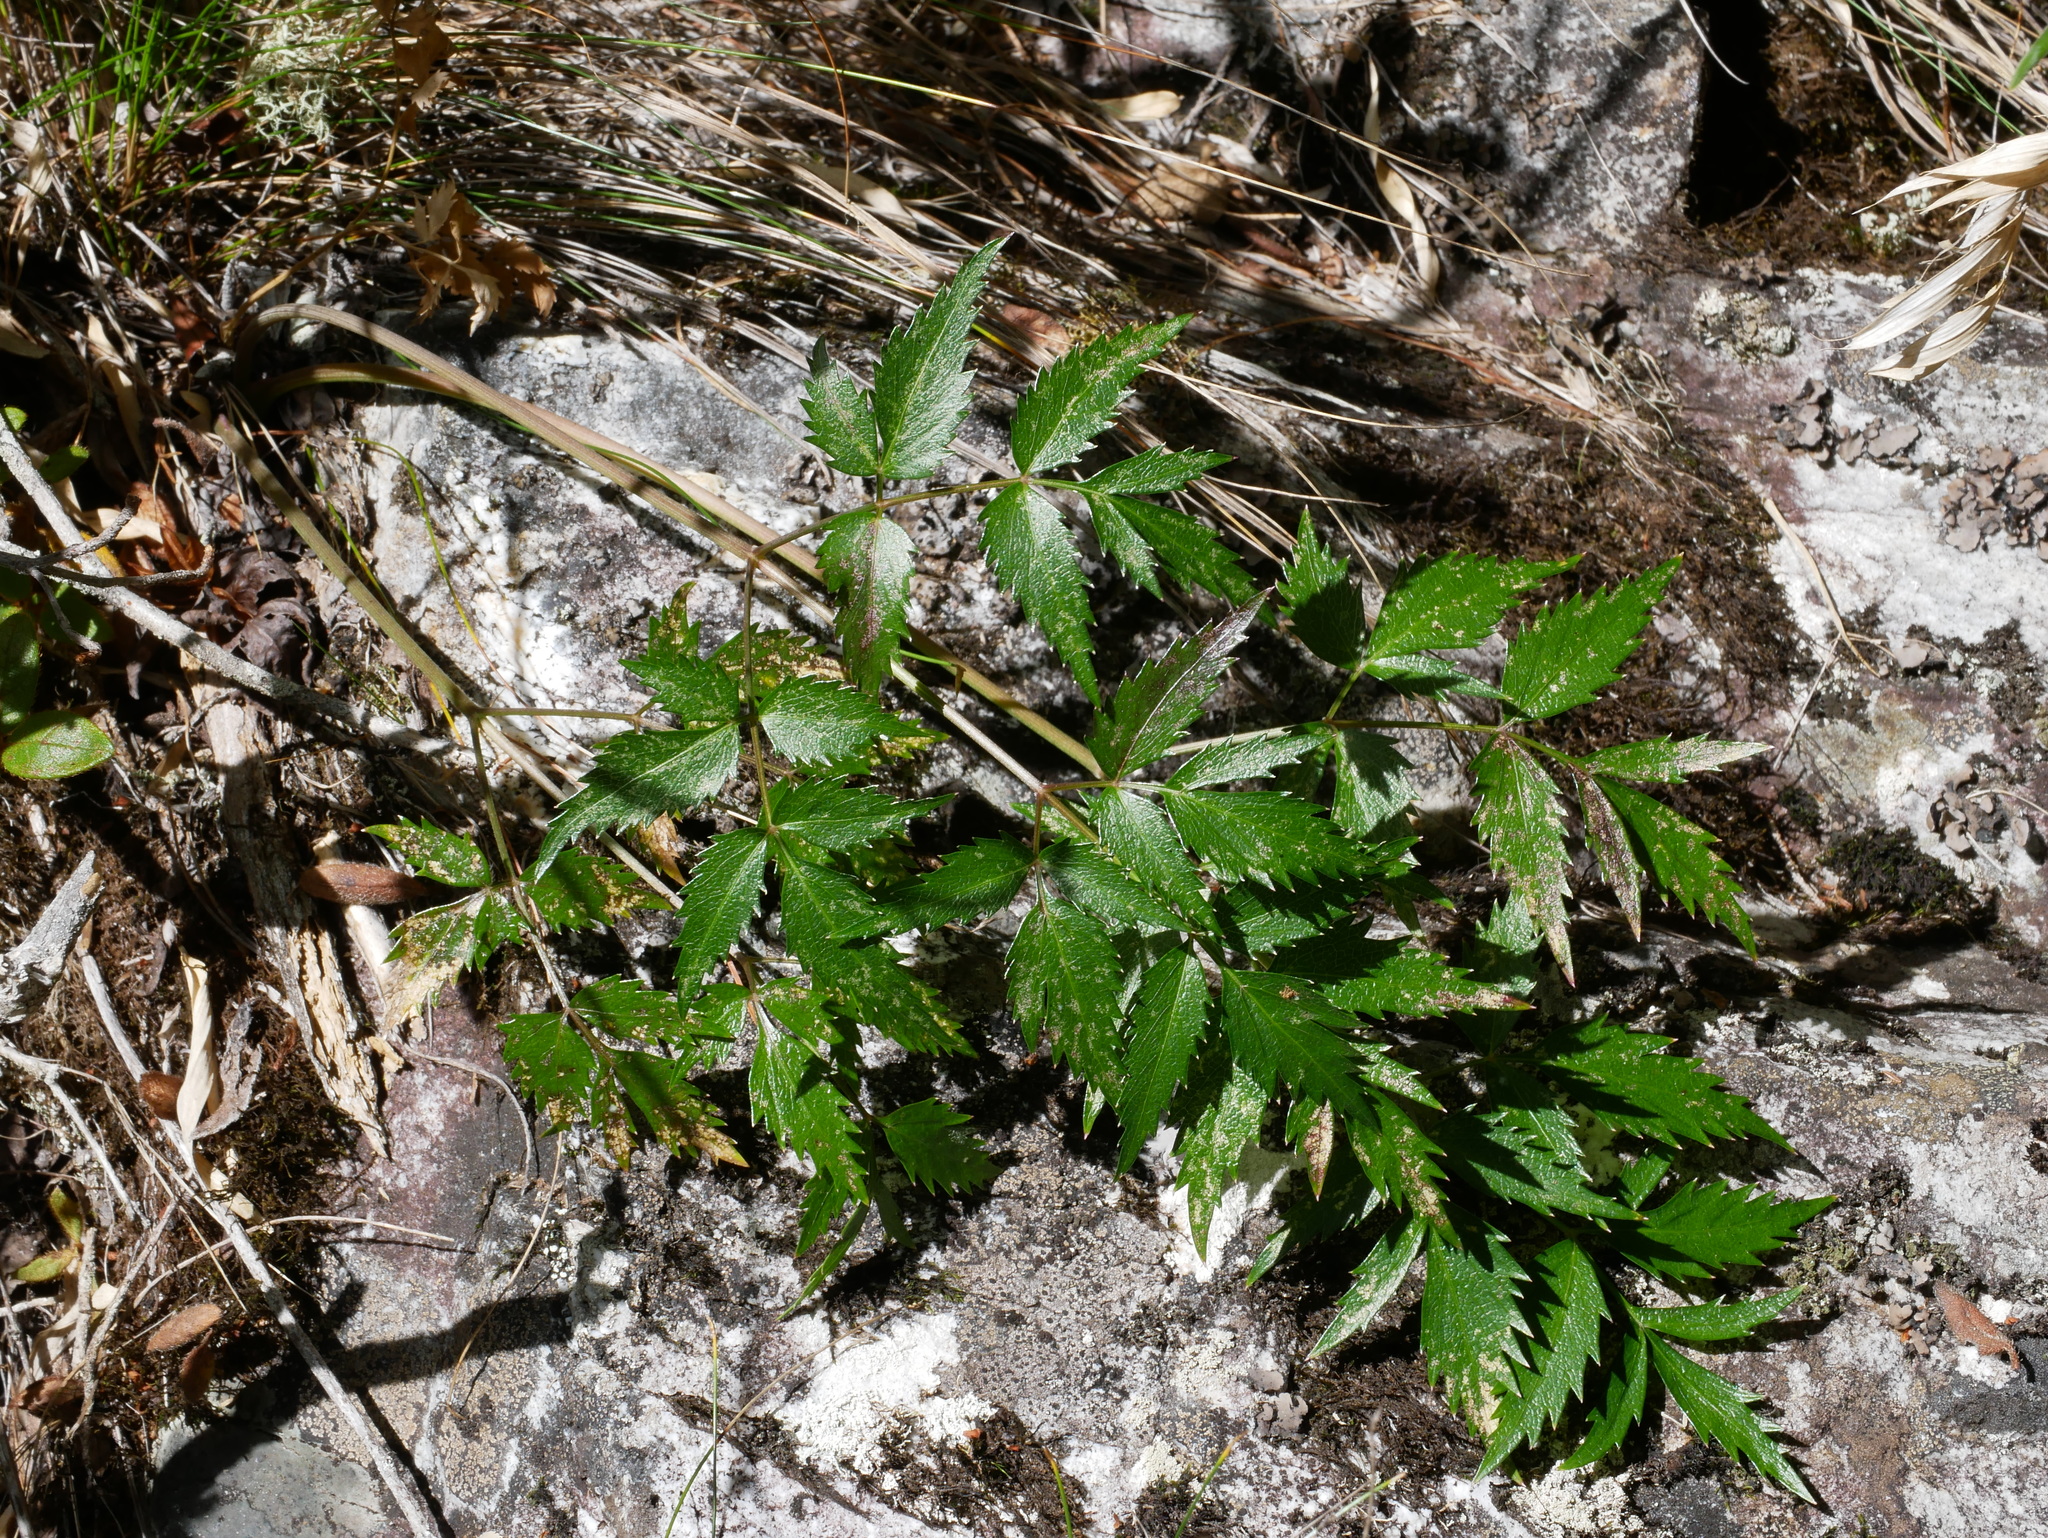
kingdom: Plantae
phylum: Tracheophyta
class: Magnoliopsida
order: Apiales
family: Apiaceae
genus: Angelica
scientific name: Angelica morii
